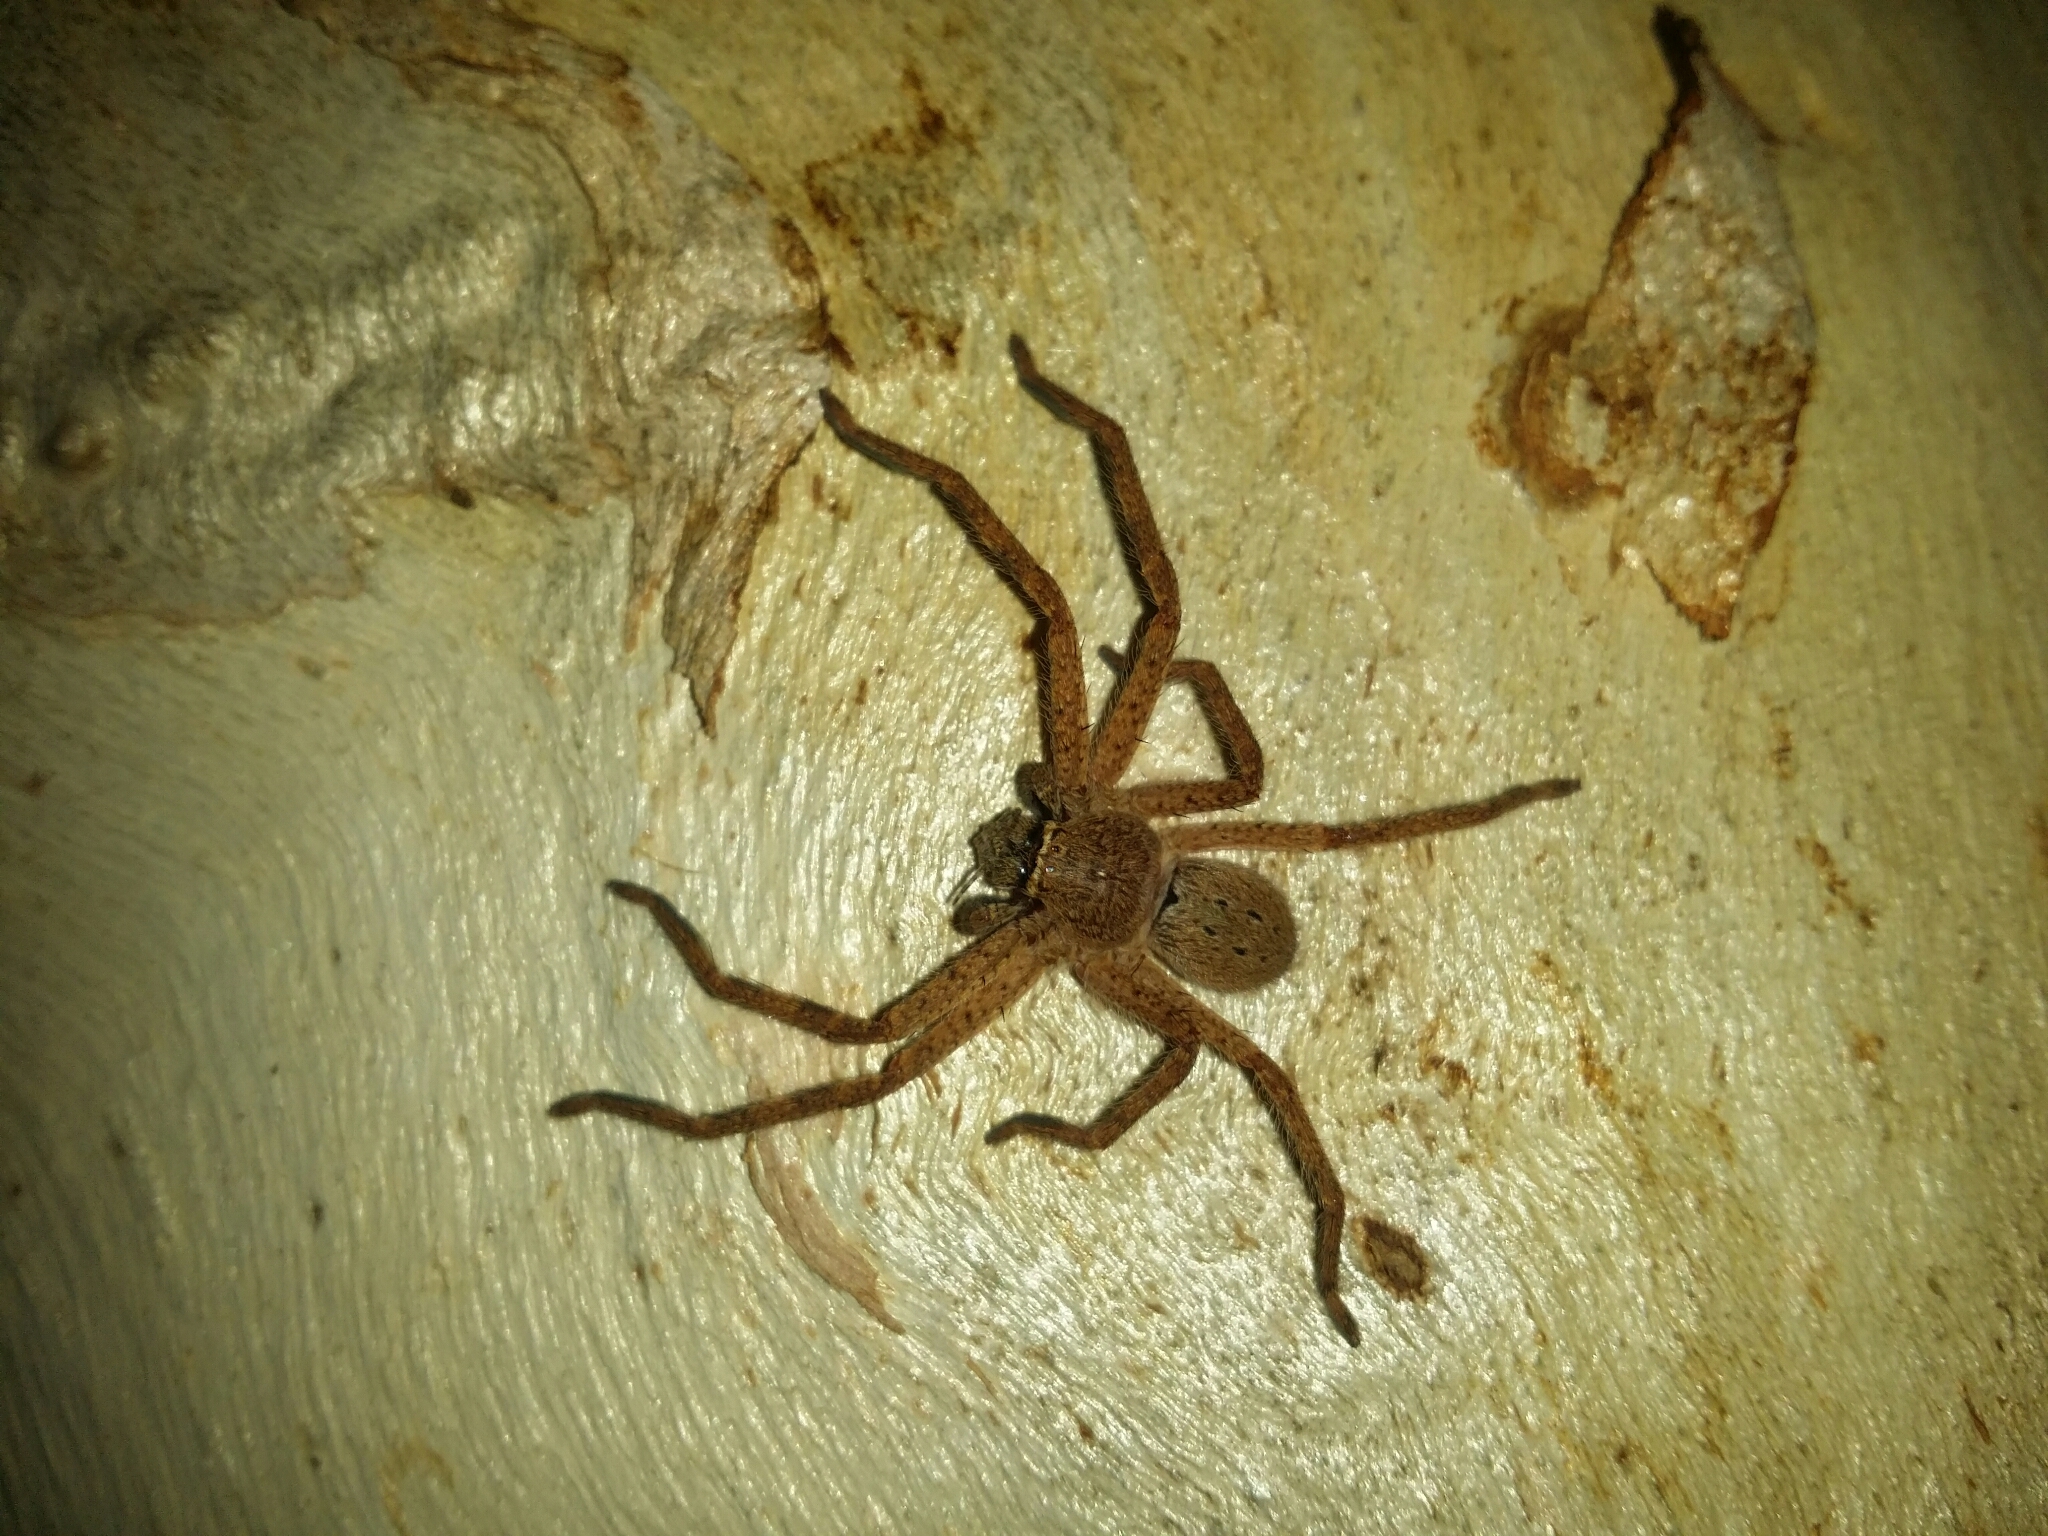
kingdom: Animalia
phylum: Arthropoda
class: Arachnida
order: Araneae
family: Sparassidae
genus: Isopedella
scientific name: Isopedella cana
